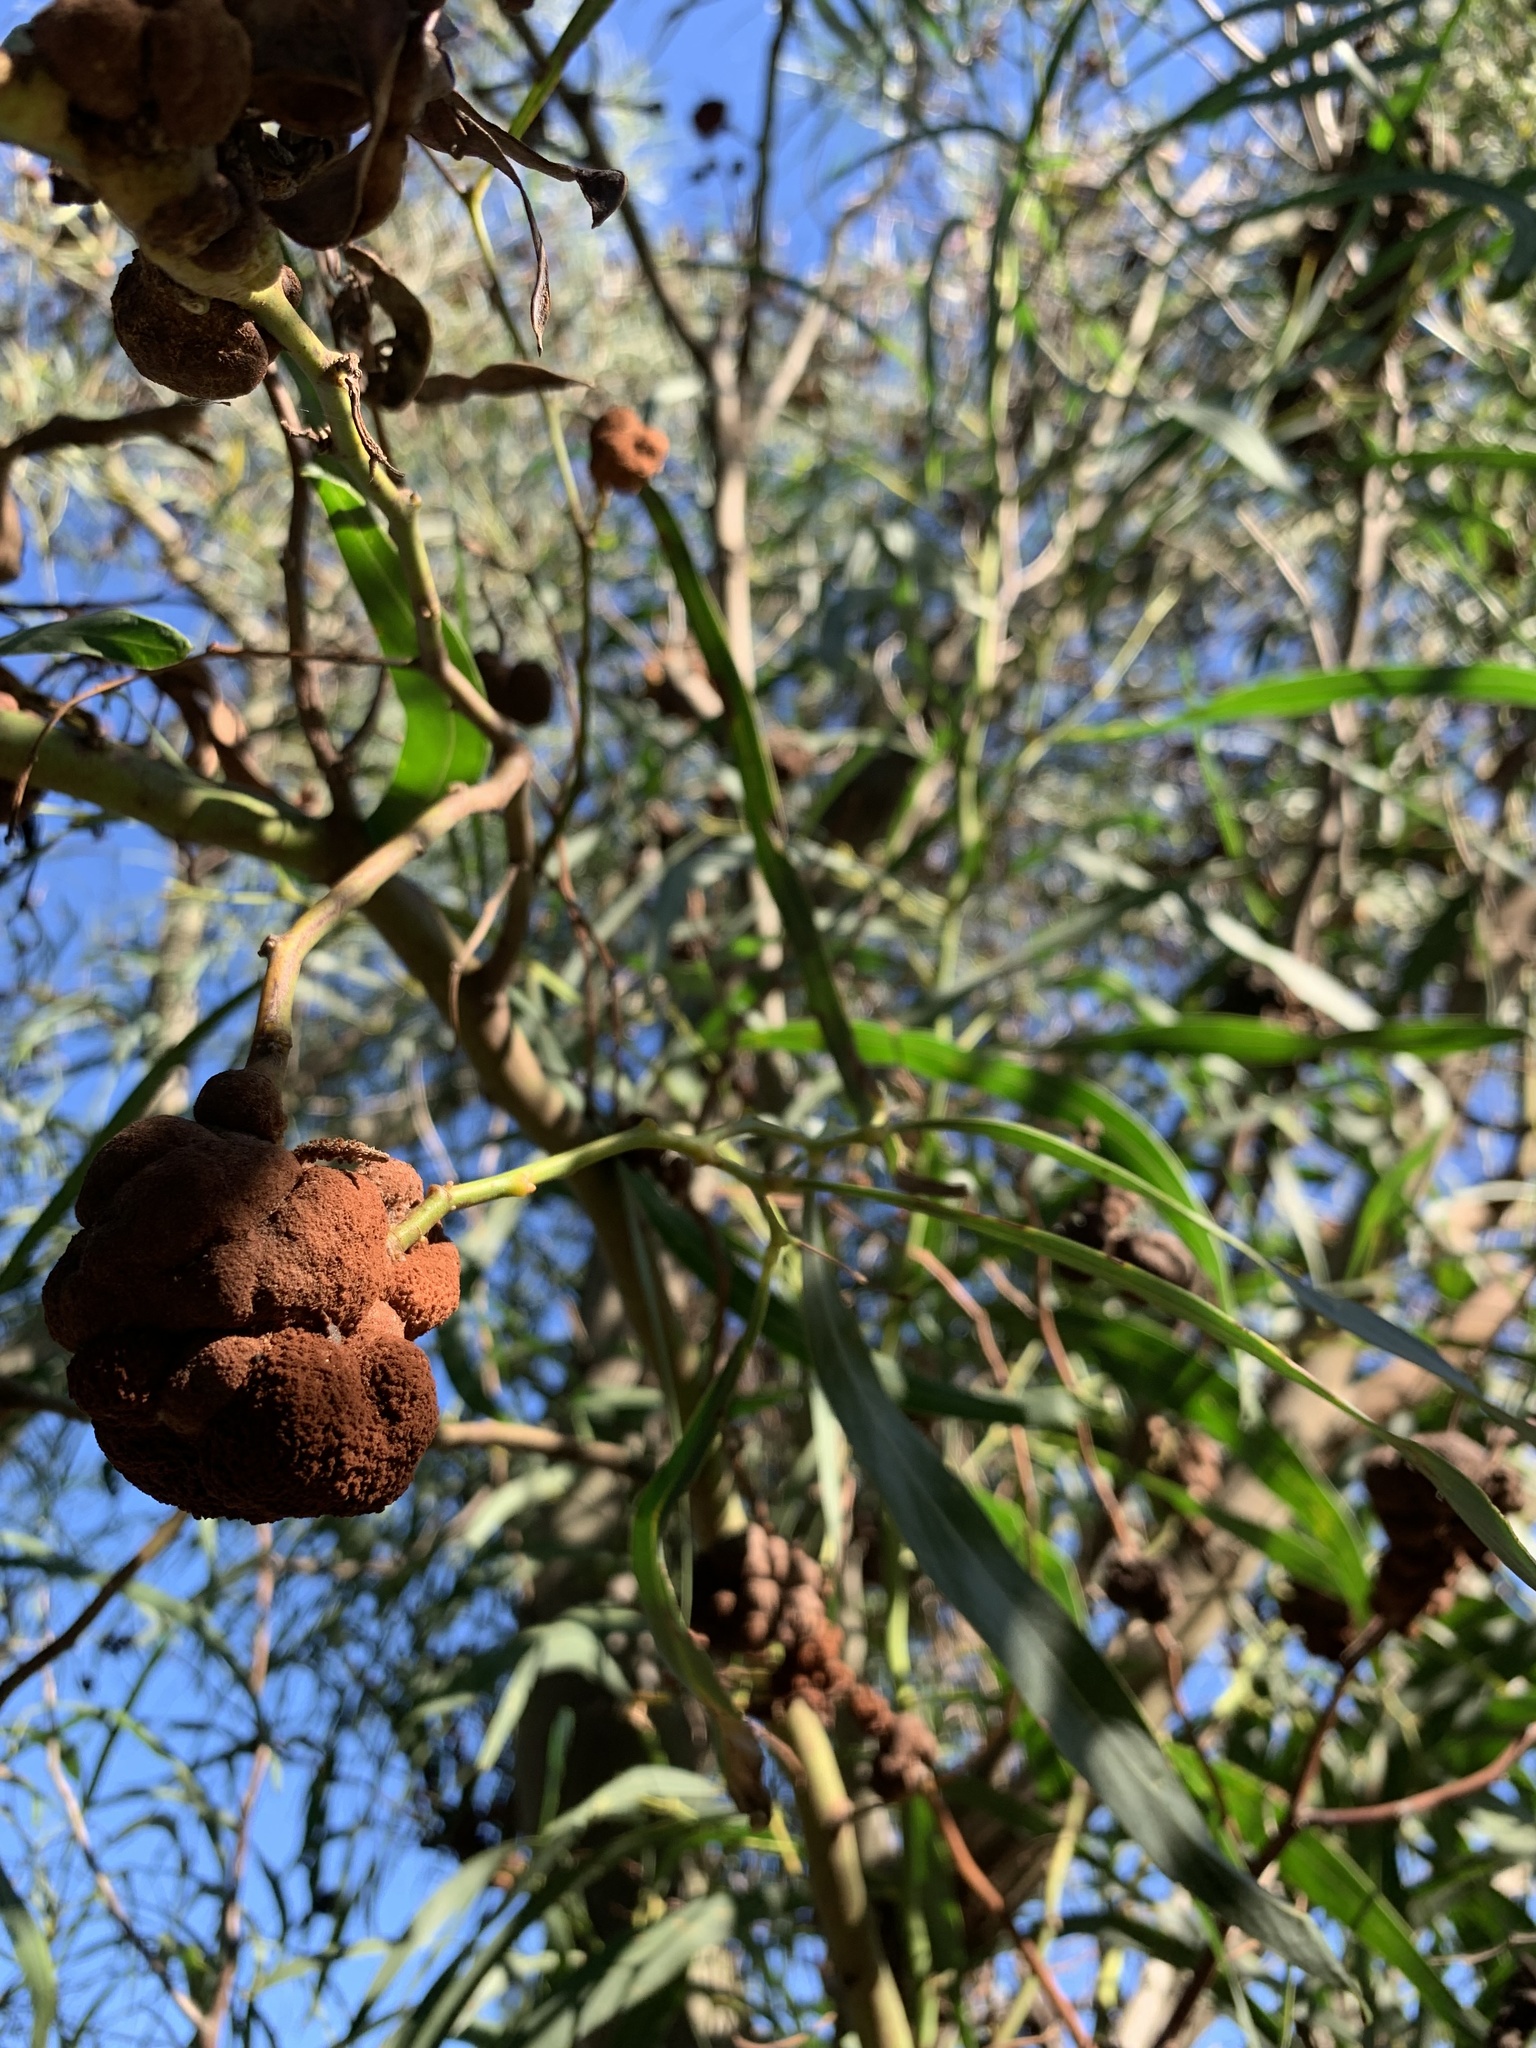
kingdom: Fungi
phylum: Basidiomycota
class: Pucciniomycetes
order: Pucciniales
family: Uromycladiaceae
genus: Uromycladium
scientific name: Uromycladium morrisii
